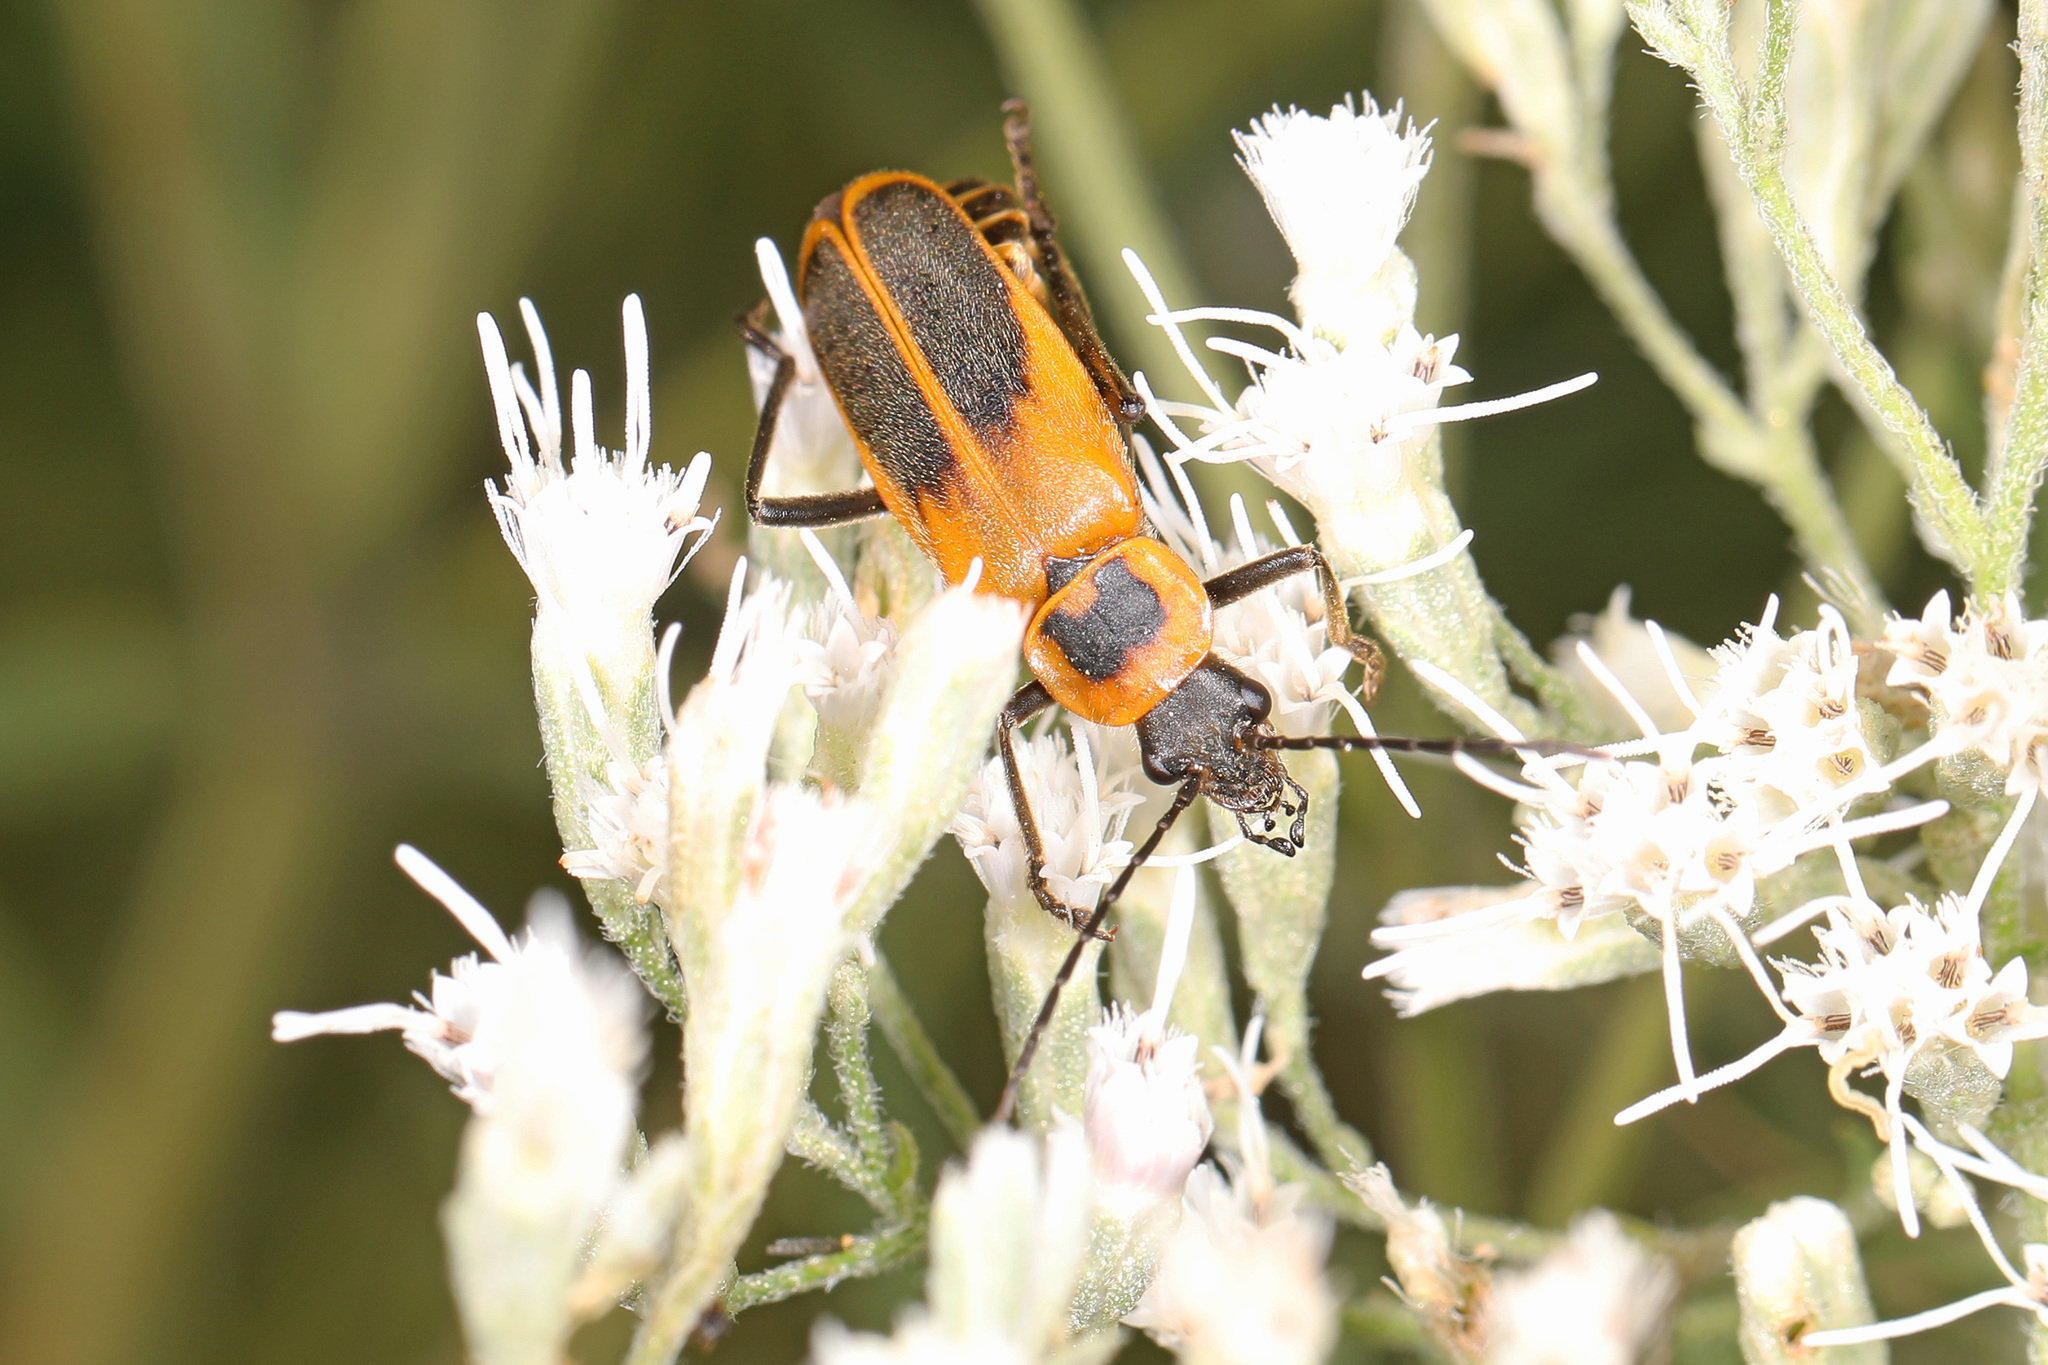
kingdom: Animalia
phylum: Arthropoda
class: Insecta
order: Coleoptera
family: Cantharidae
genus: Chauliognathus
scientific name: Chauliognathus pensylvanicus
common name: Goldenrod soldier beetle
